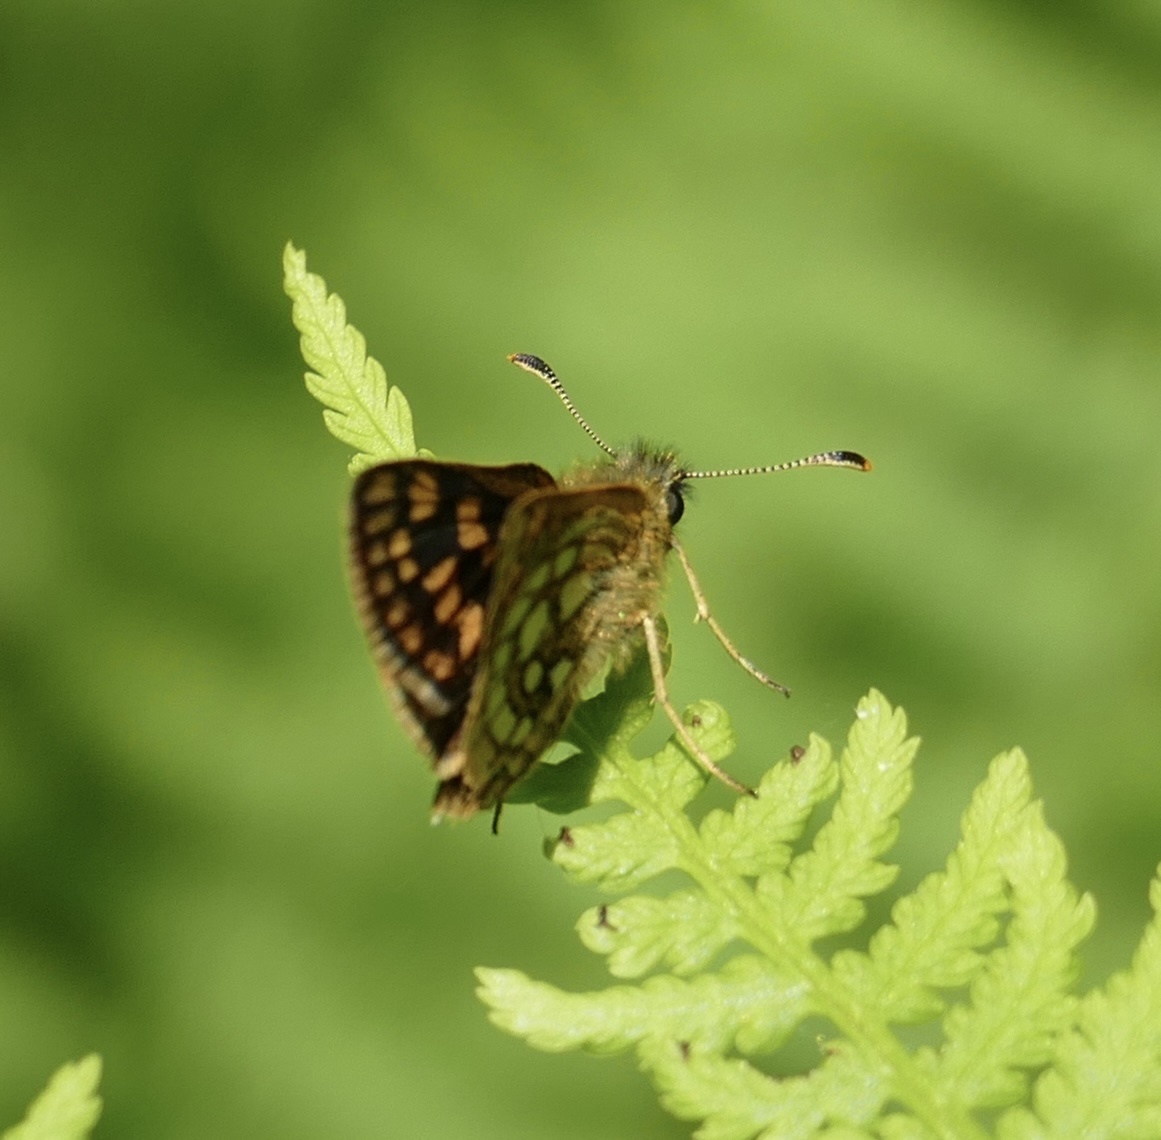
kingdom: Animalia
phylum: Arthropoda
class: Insecta
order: Lepidoptera
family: Hesperiidae
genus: Carterocephalus
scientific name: Carterocephalus palaemon
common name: Chequered skipper
